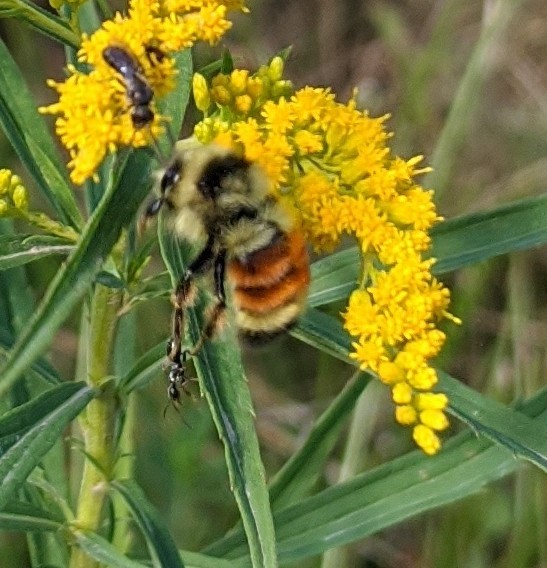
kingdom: Animalia
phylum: Arthropoda
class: Insecta
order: Hymenoptera
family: Apidae
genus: Bombus
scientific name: Bombus ternarius
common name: Tri-colored bumble bee
